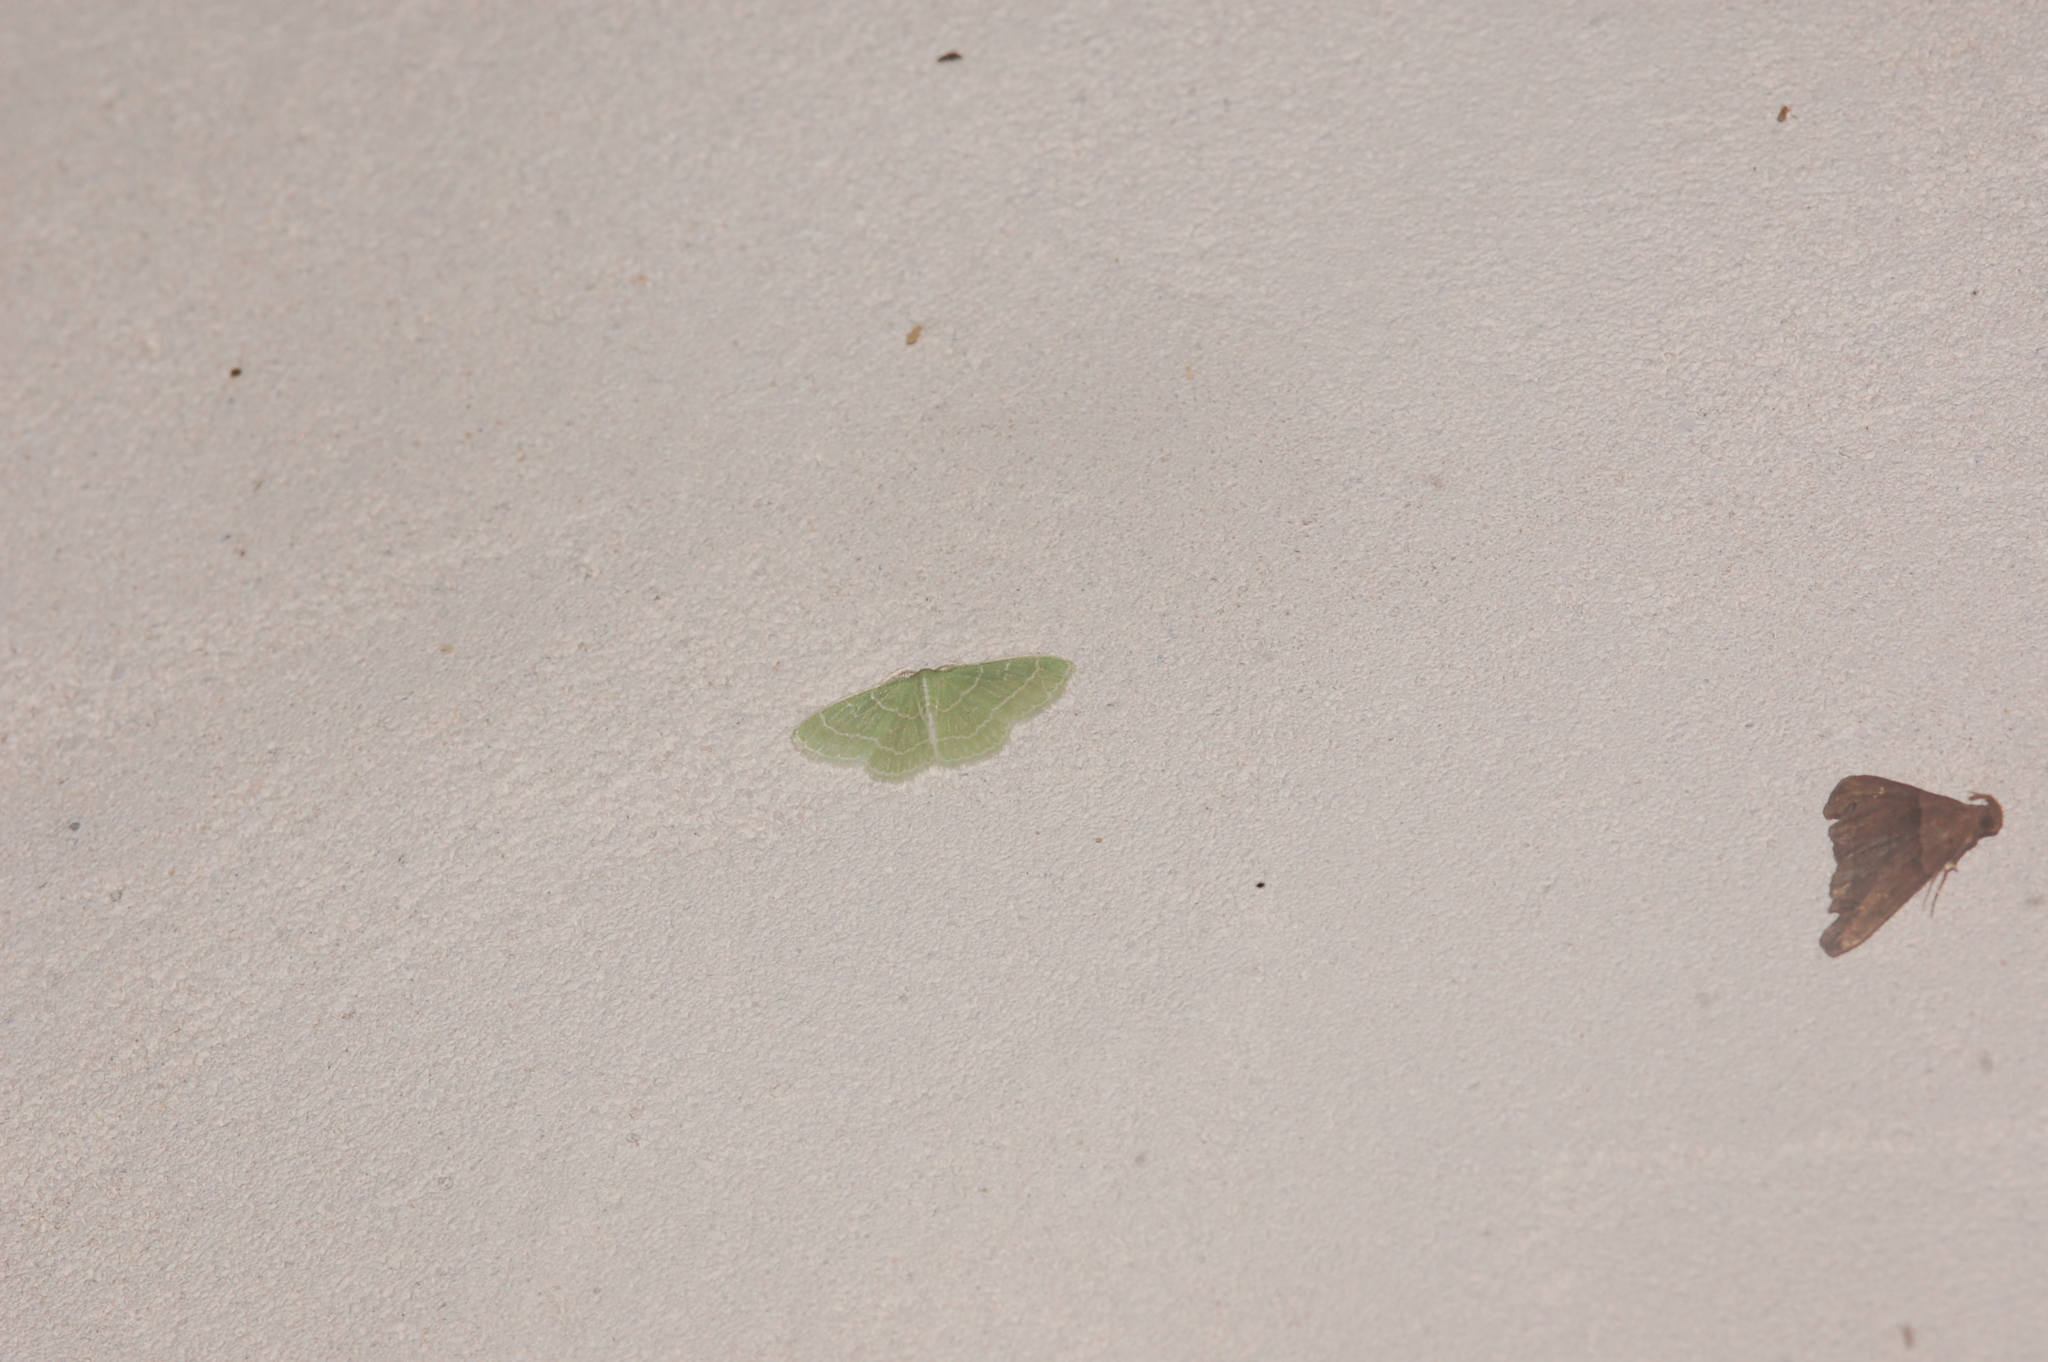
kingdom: Animalia
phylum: Arthropoda
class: Insecta
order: Lepidoptera
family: Geometridae
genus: Synchlora
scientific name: Synchlora aerata
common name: Wavy-lined emerald
